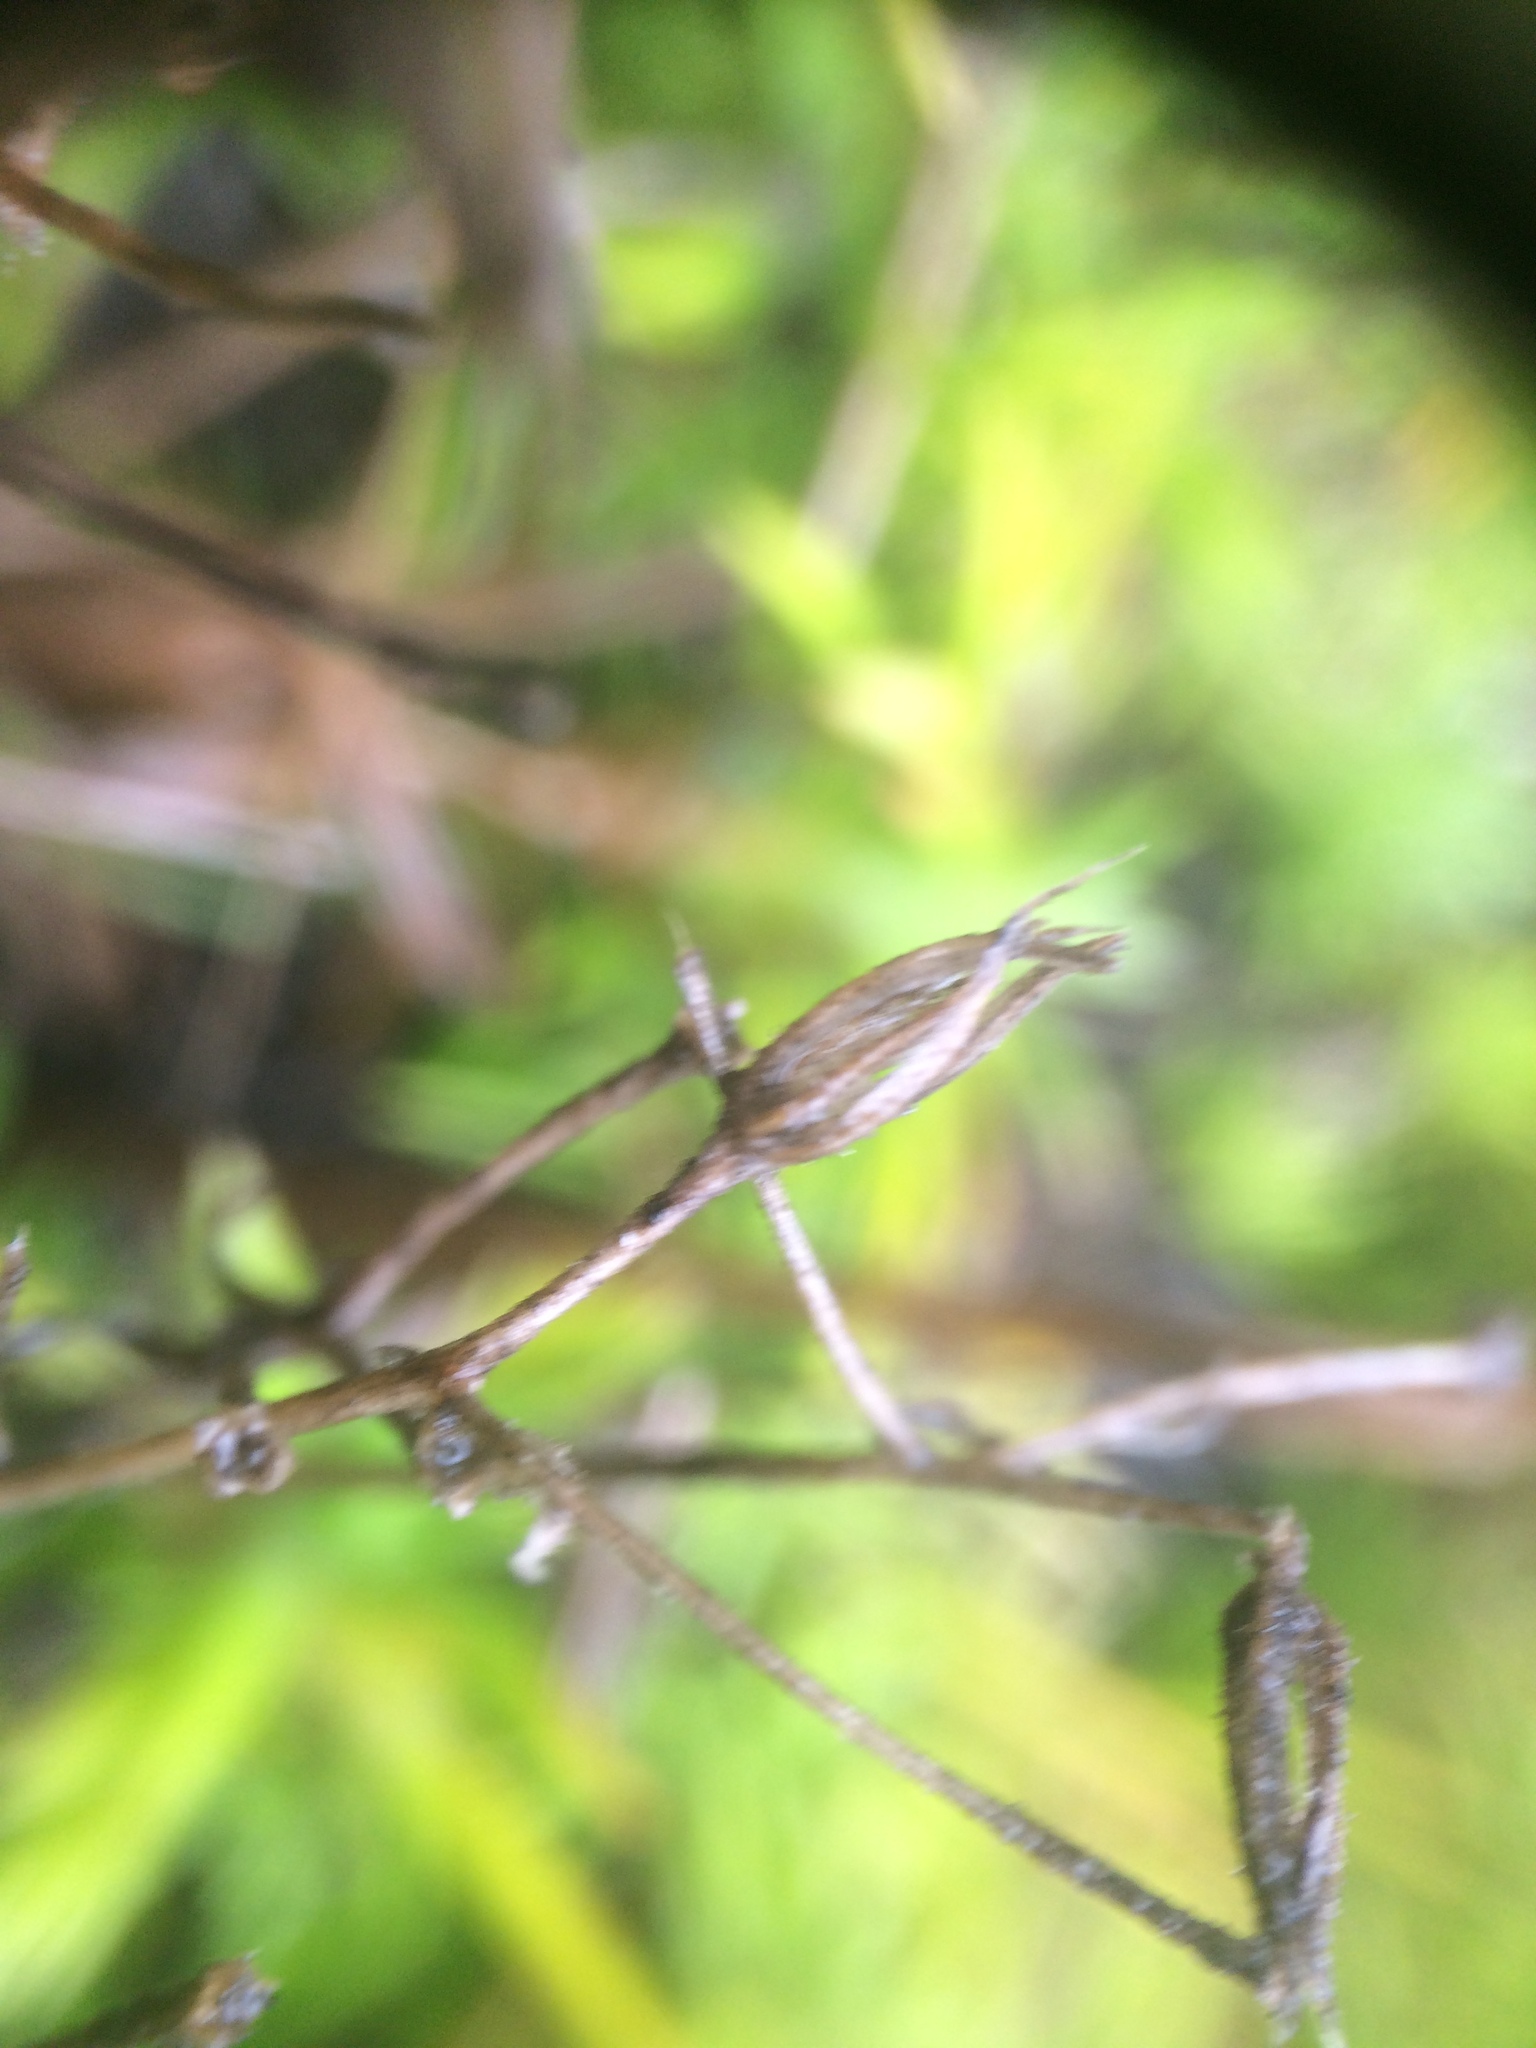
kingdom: Plantae
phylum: Tracheophyta
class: Magnoliopsida
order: Ericales
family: Polemoniaceae
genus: Phlox
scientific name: Phlox subulata
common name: Moss phlox
